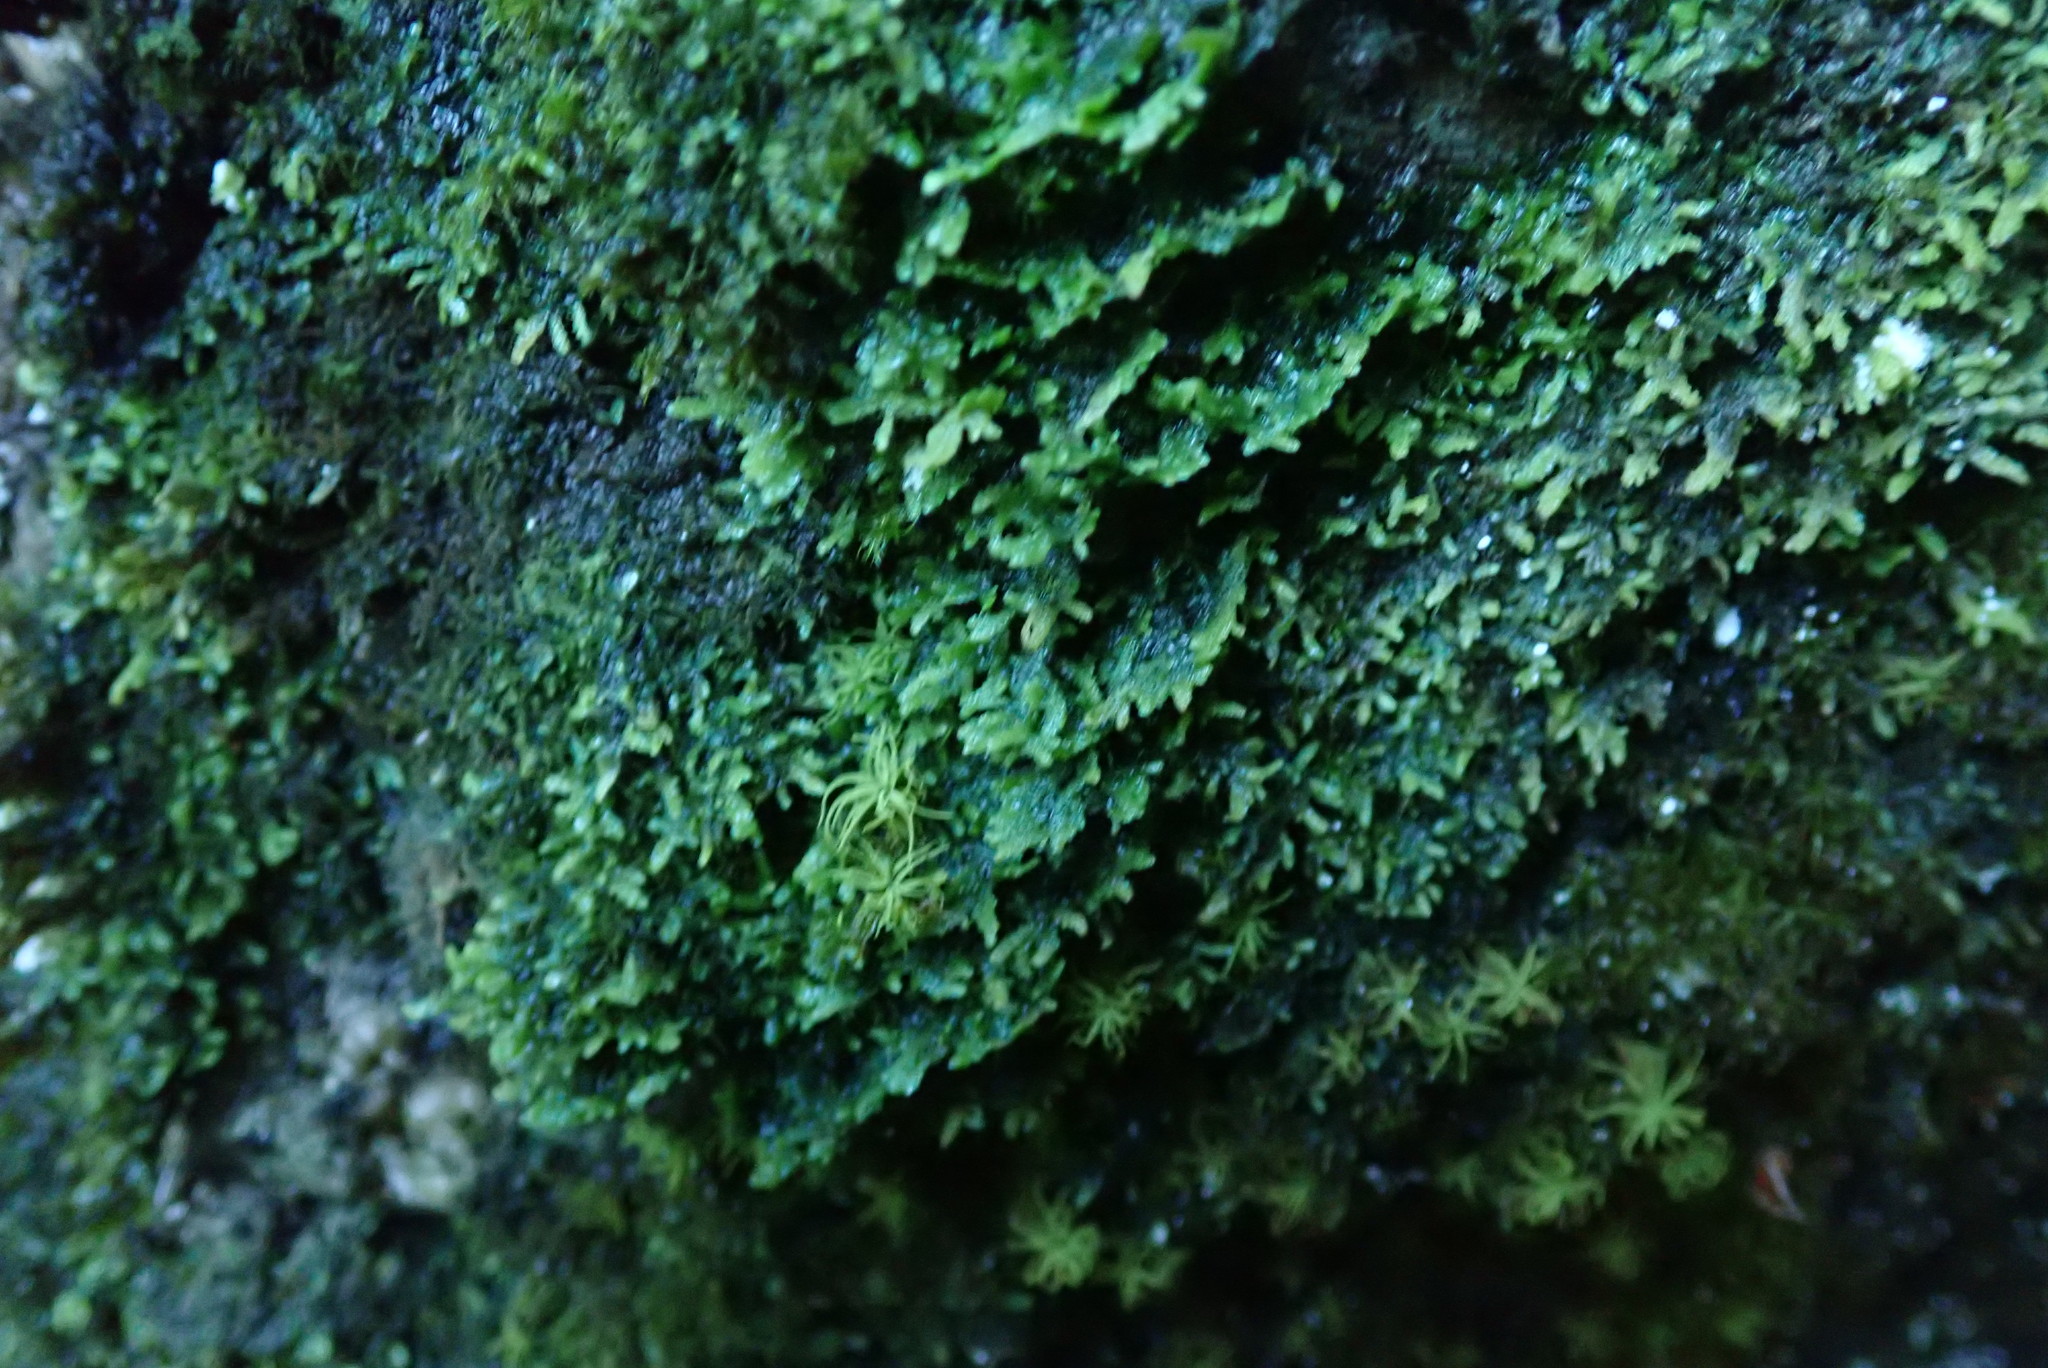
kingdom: Plantae
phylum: Marchantiophyta
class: Jungermanniopsida
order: Porellales
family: Radulaceae
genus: Radula
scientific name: Radula complanata
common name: Flat-leaved scalewort
